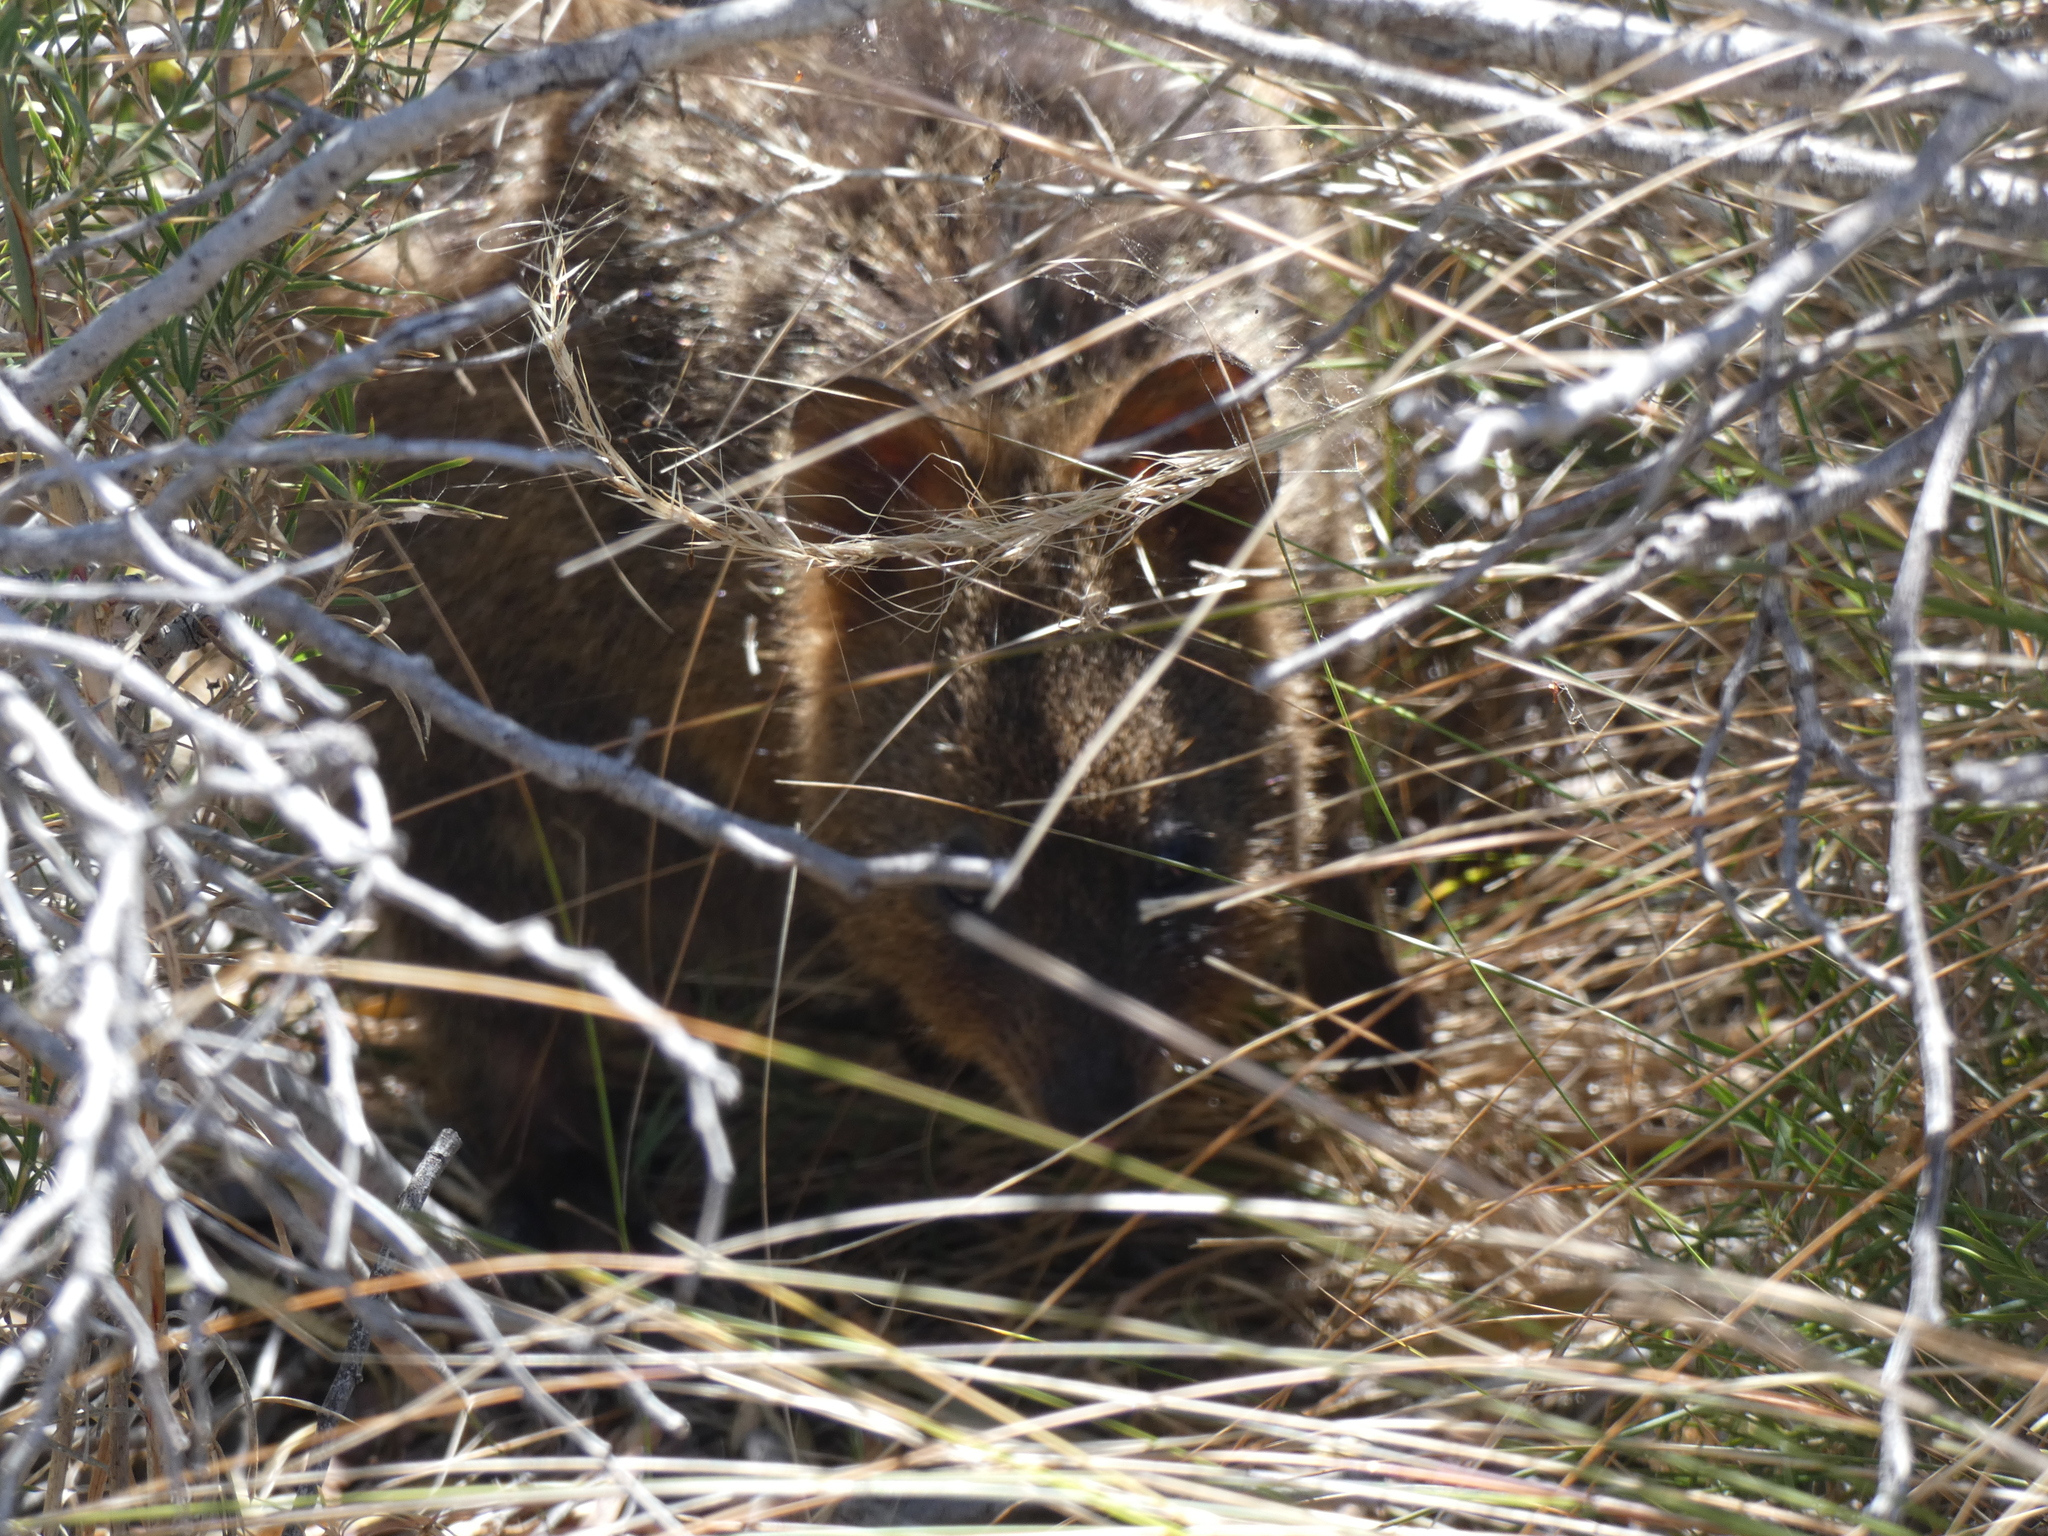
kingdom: Animalia
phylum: Chordata
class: Mammalia
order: Diprotodontia
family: Macropodidae
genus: Setonix
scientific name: Setonix brachyurus
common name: Quokka
